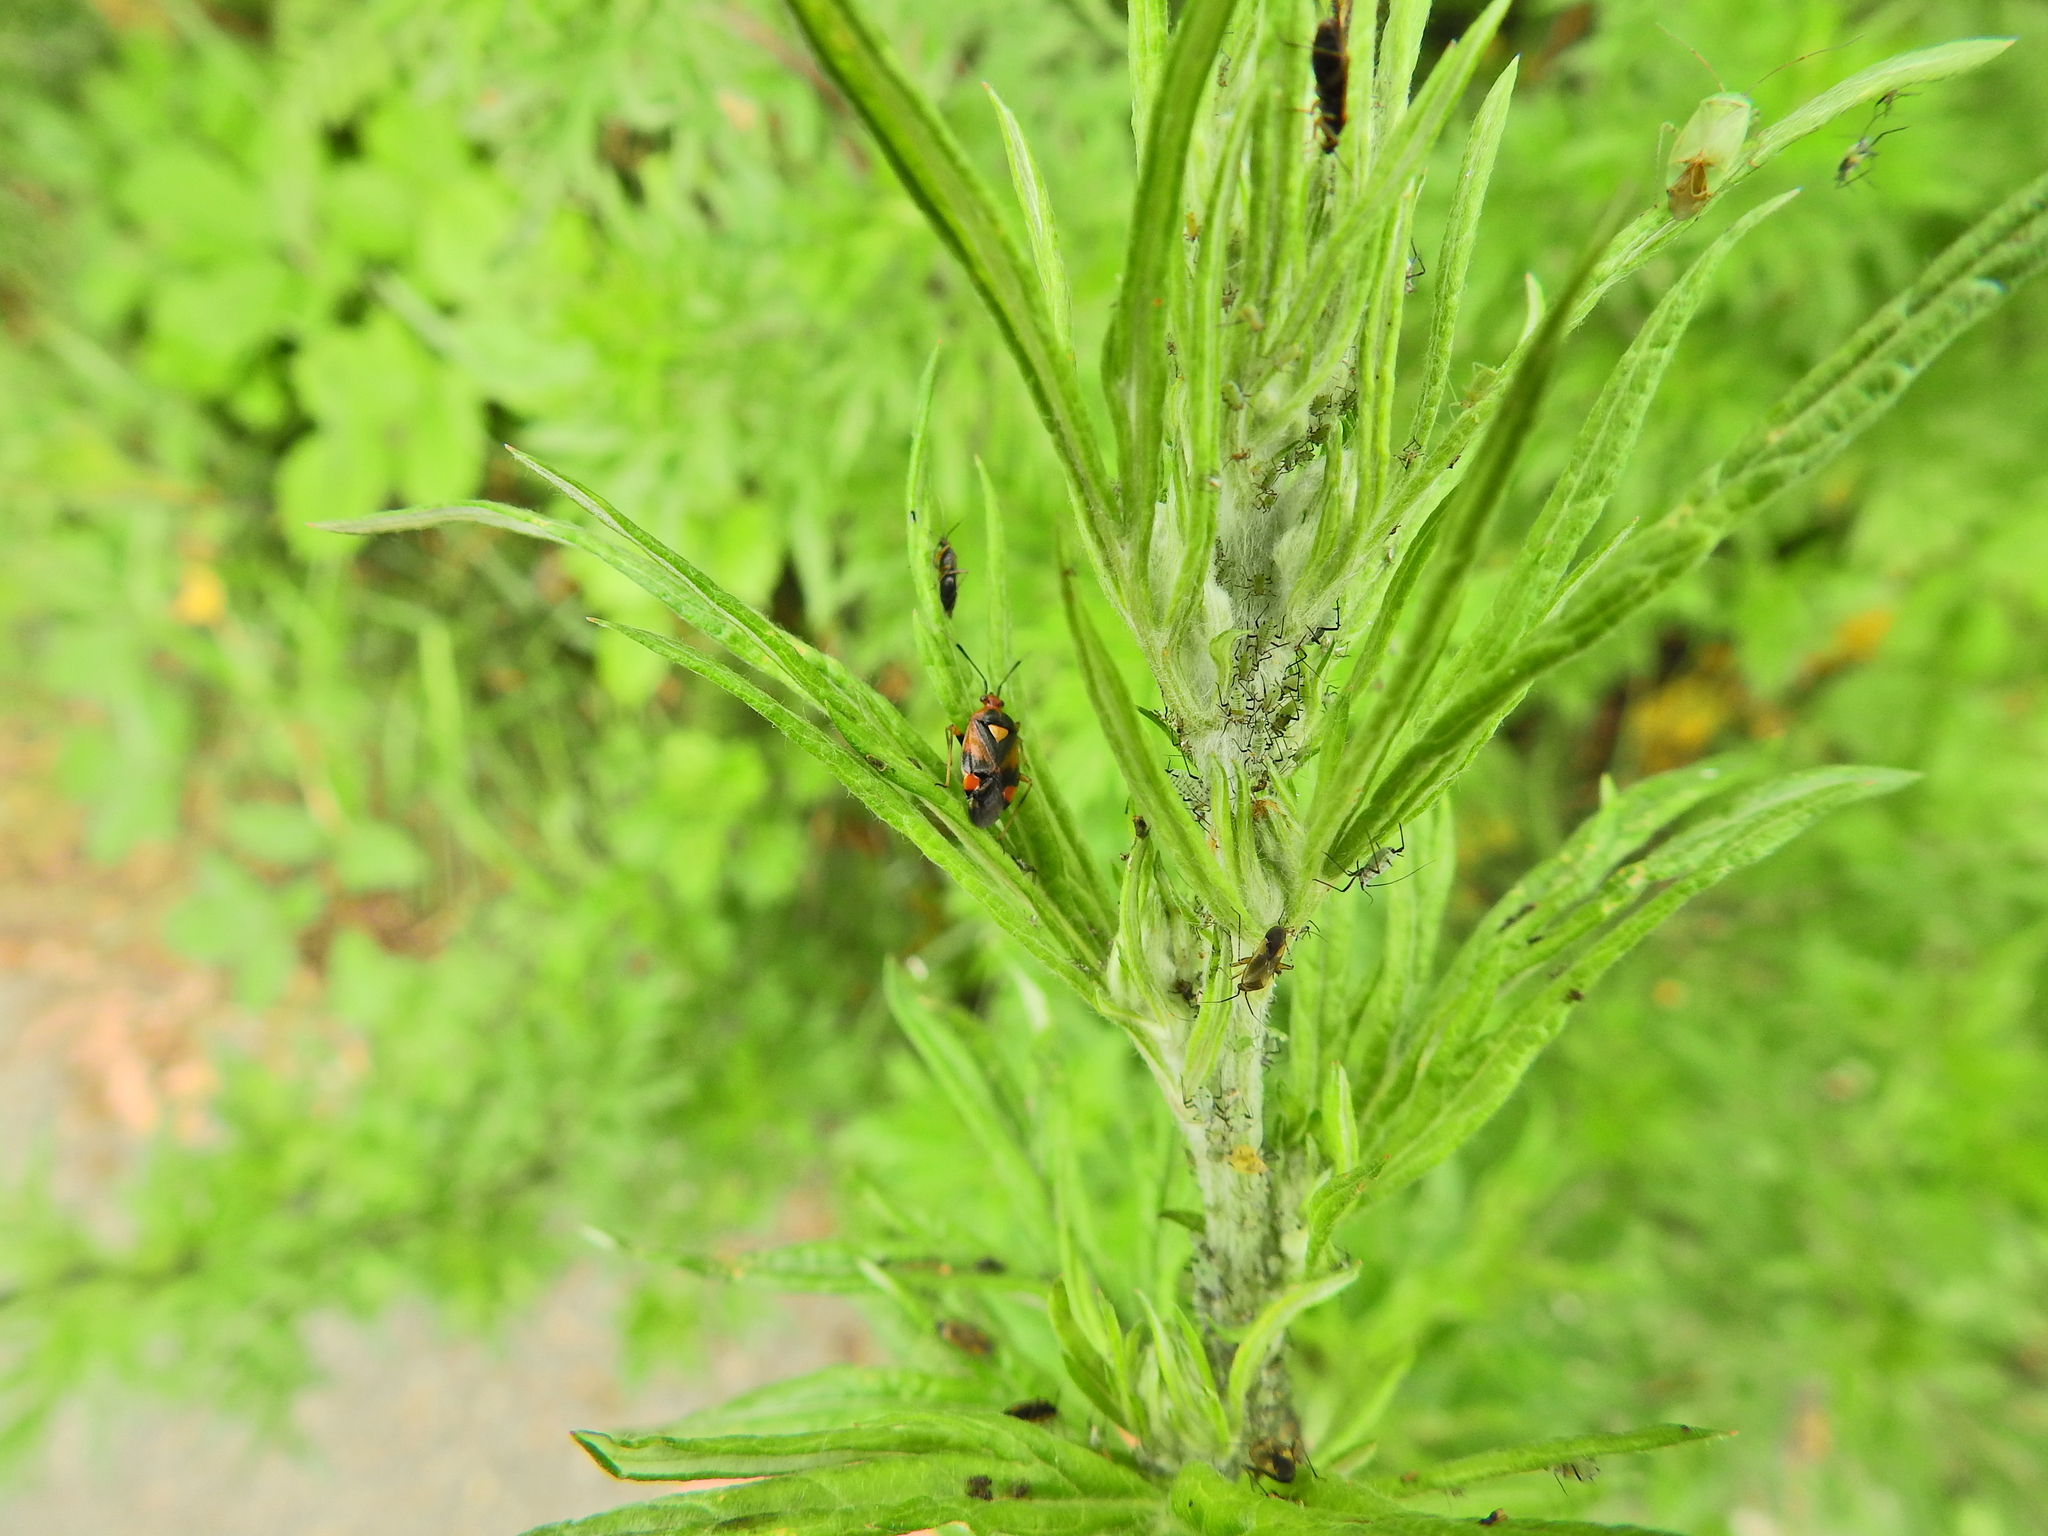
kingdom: Animalia
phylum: Arthropoda
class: Insecta
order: Hemiptera
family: Aphididae
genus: Macrosiphoniella
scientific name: Macrosiphoniella artemisiae
